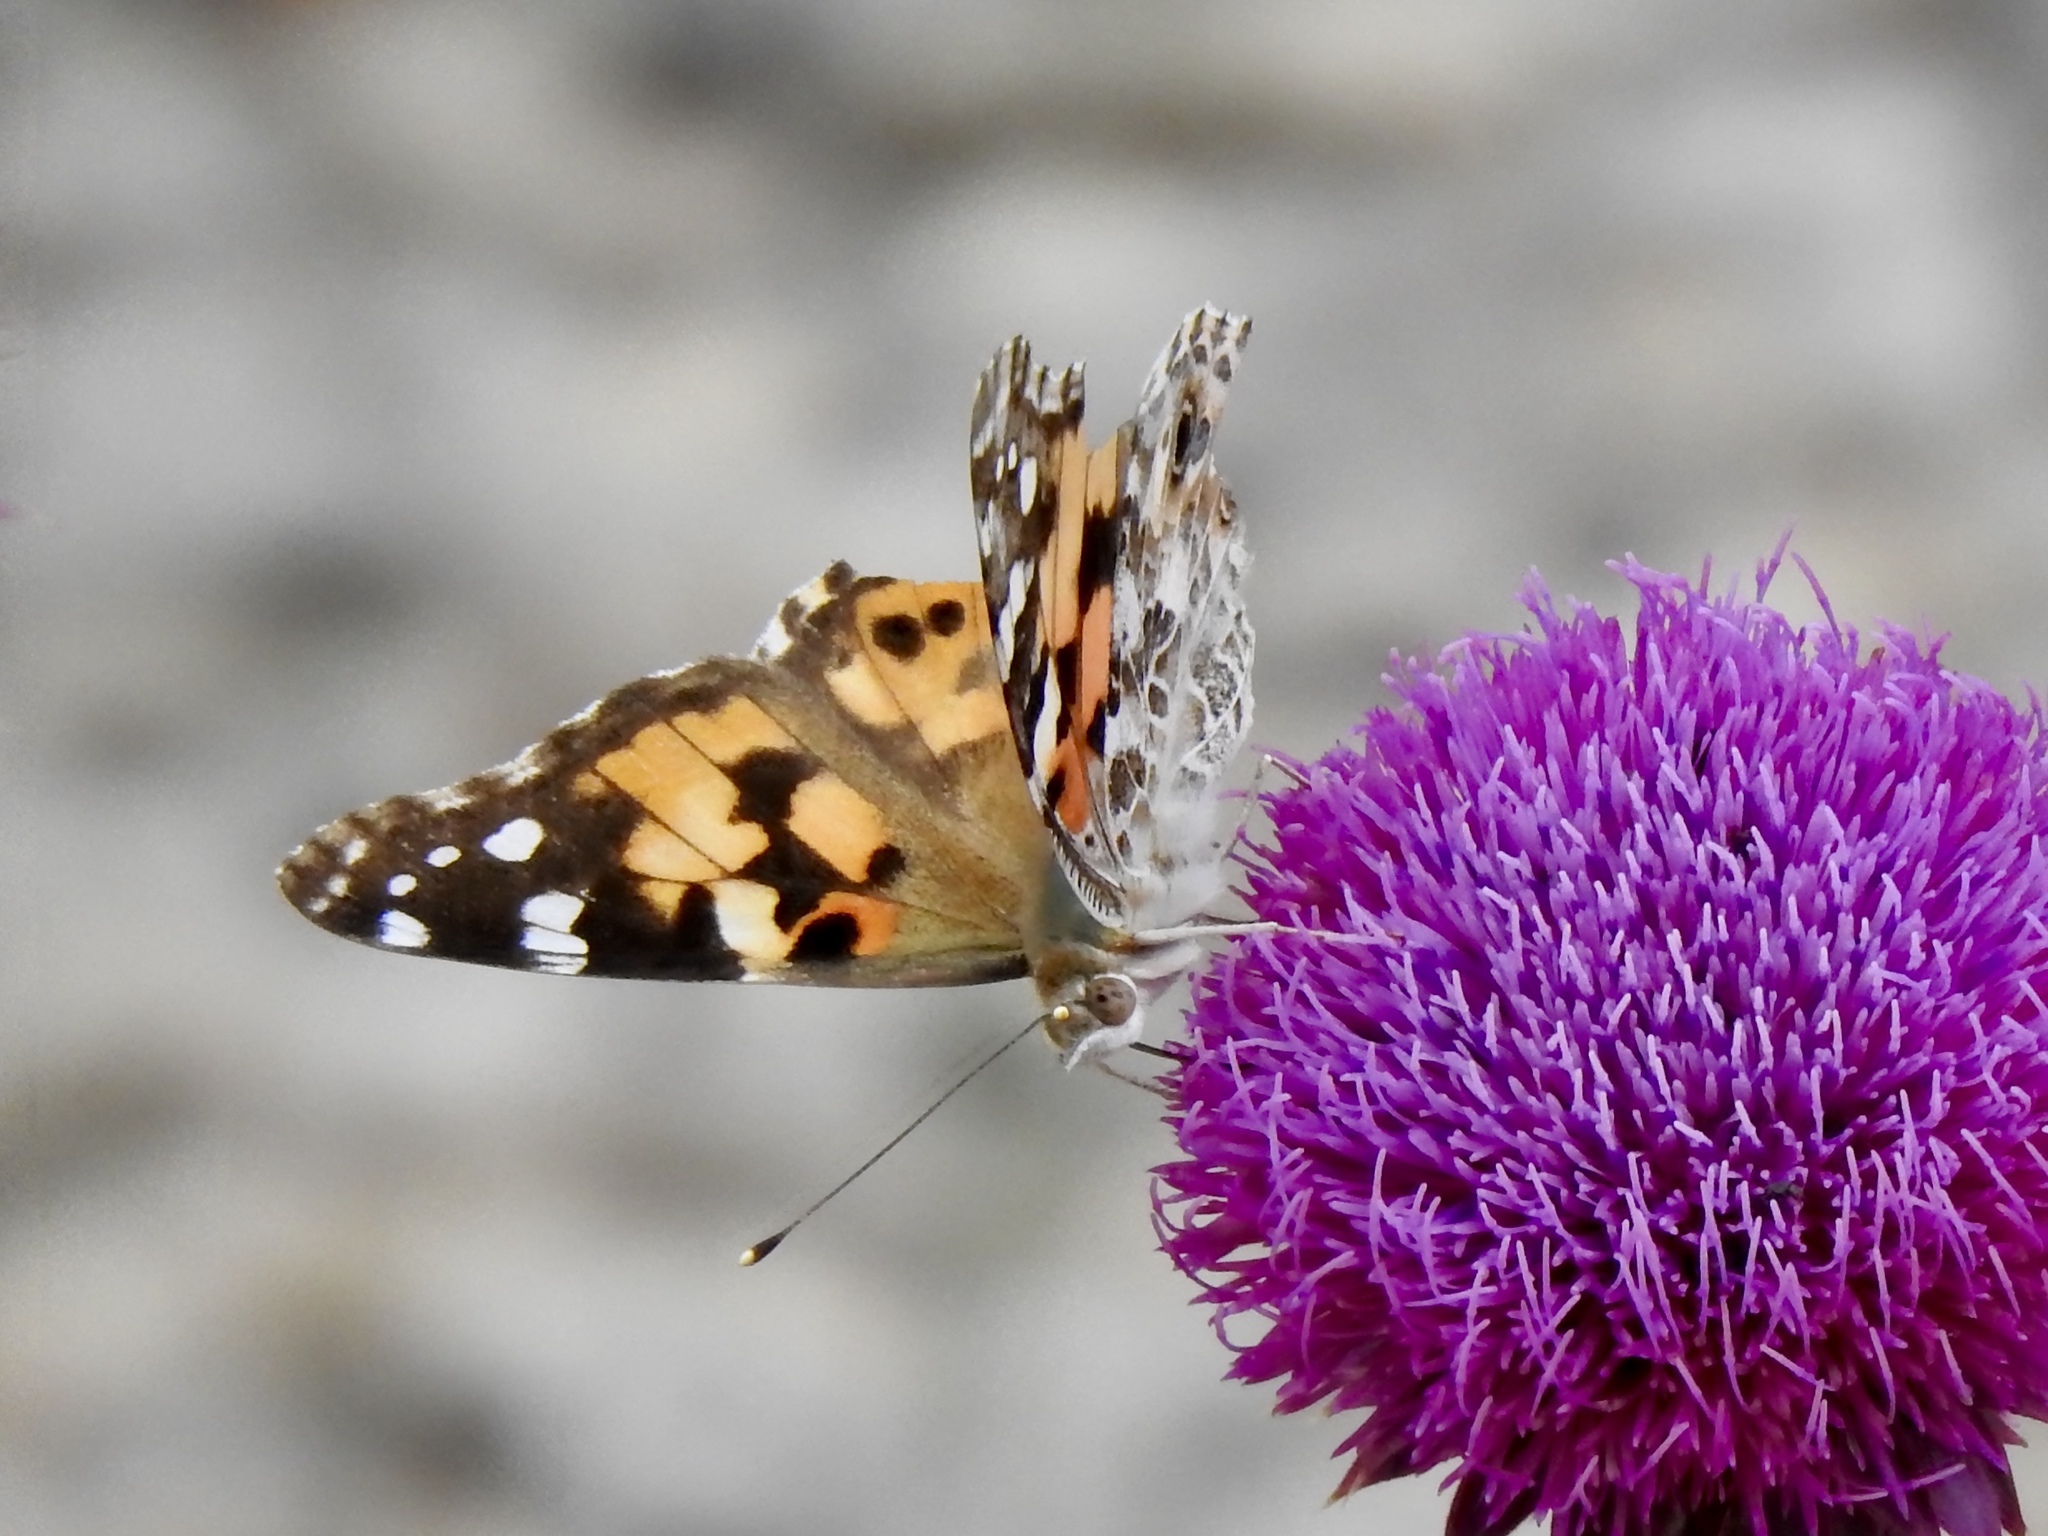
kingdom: Animalia
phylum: Arthropoda
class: Insecta
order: Lepidoptera
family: Nymphalidae
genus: Vanessa
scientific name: Vanessa cardui
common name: Painted lady
